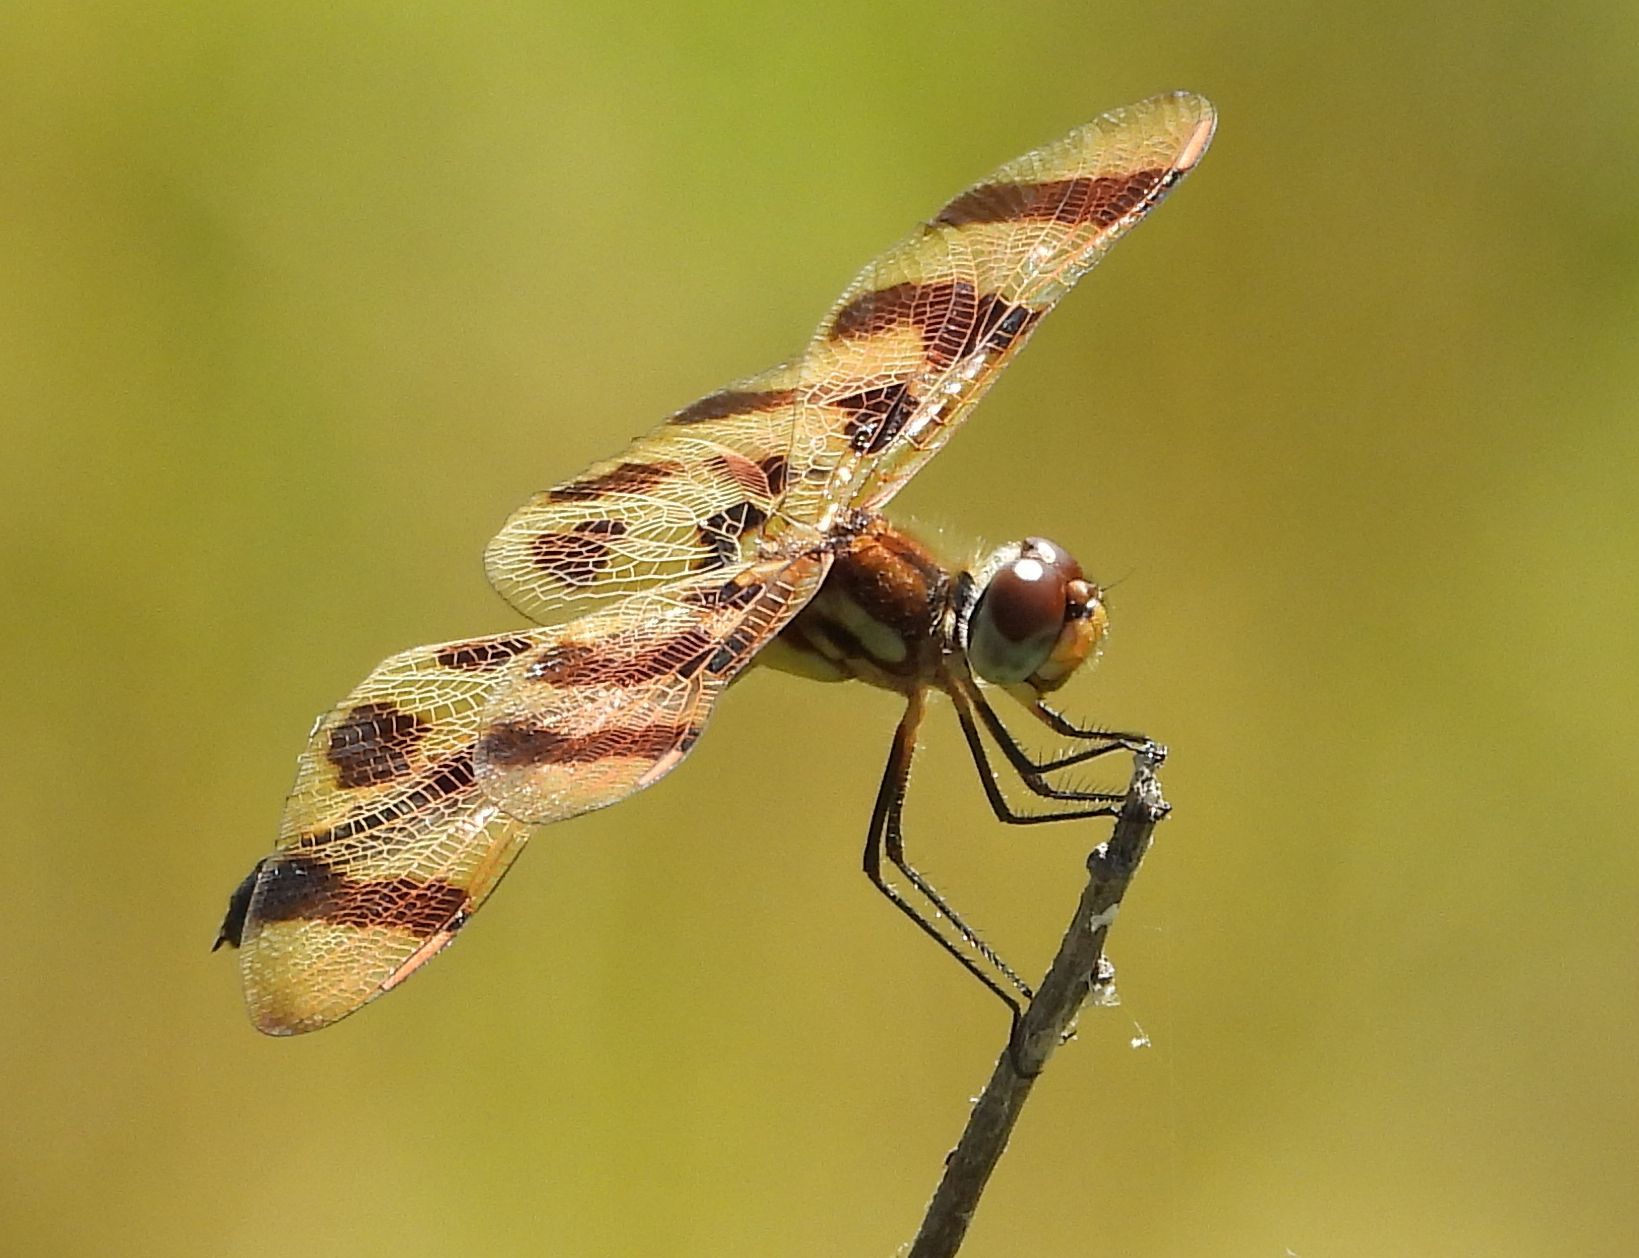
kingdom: Animalia
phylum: Arthropoda
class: Insecta
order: Odonata
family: Libellulidae
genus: Celithemis
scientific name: Celithemis eponina
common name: Halloween pennant
